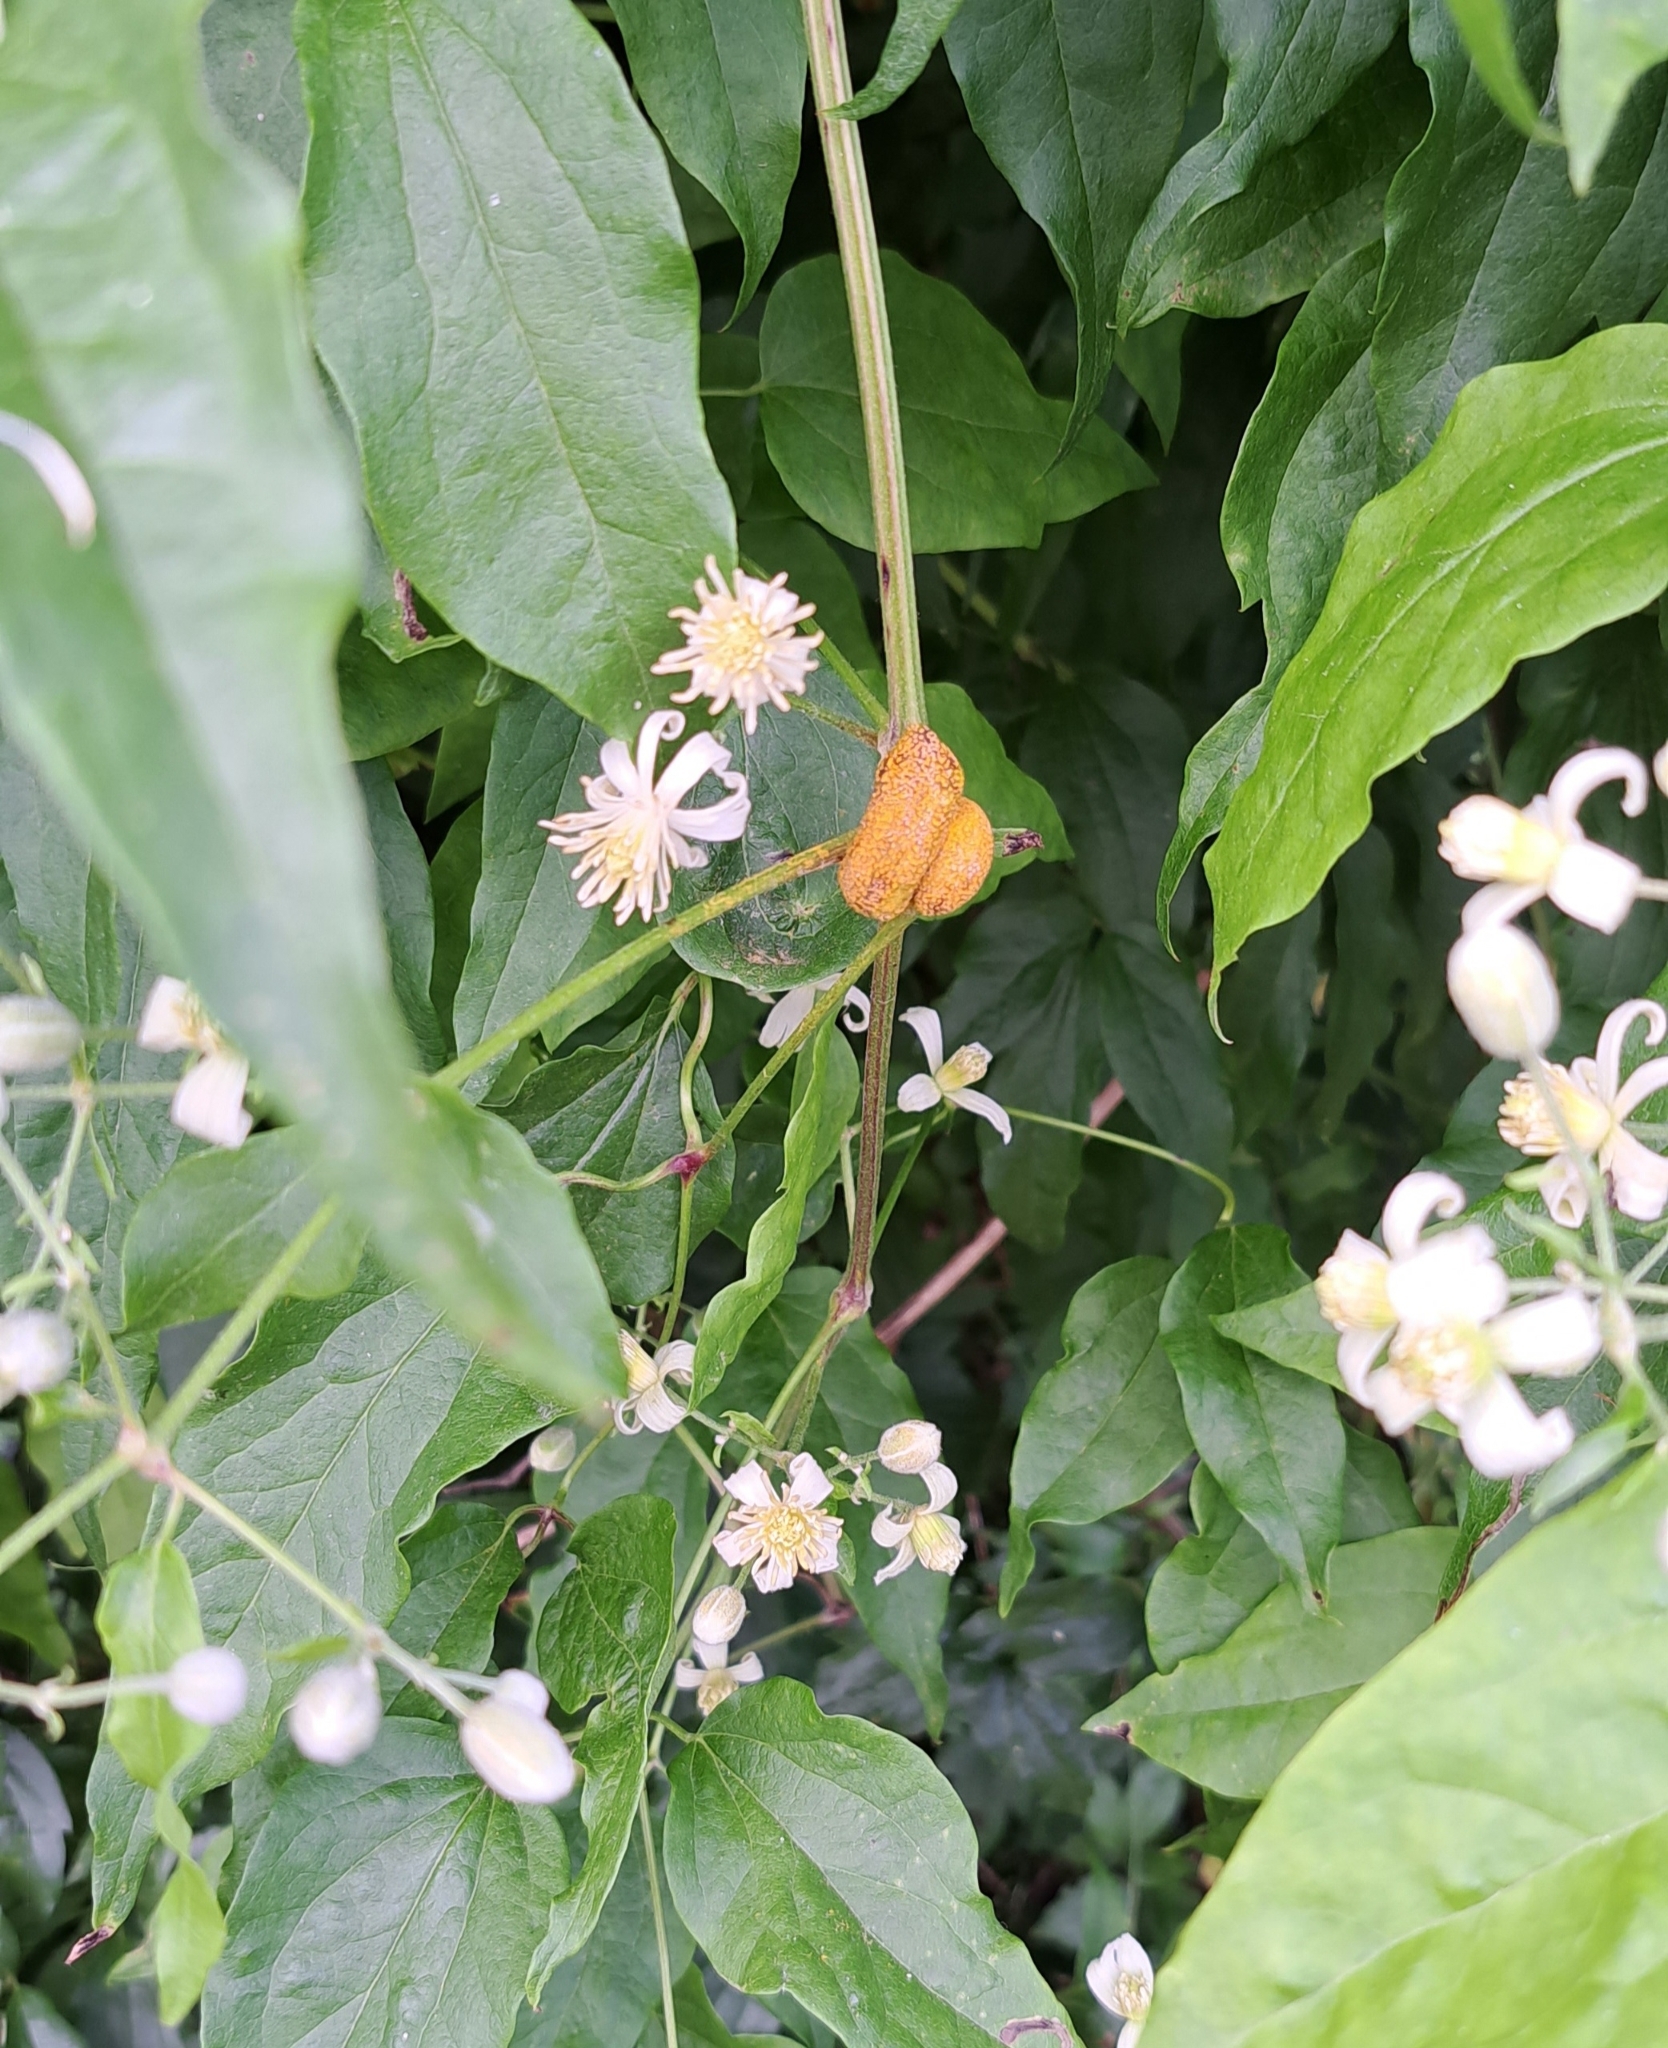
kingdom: Fungi
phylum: Basidiomycota
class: Pucciniomycetes
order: Pucciniales
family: Pucciniaceae
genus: Puccinia
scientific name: Puccinia clematidis
